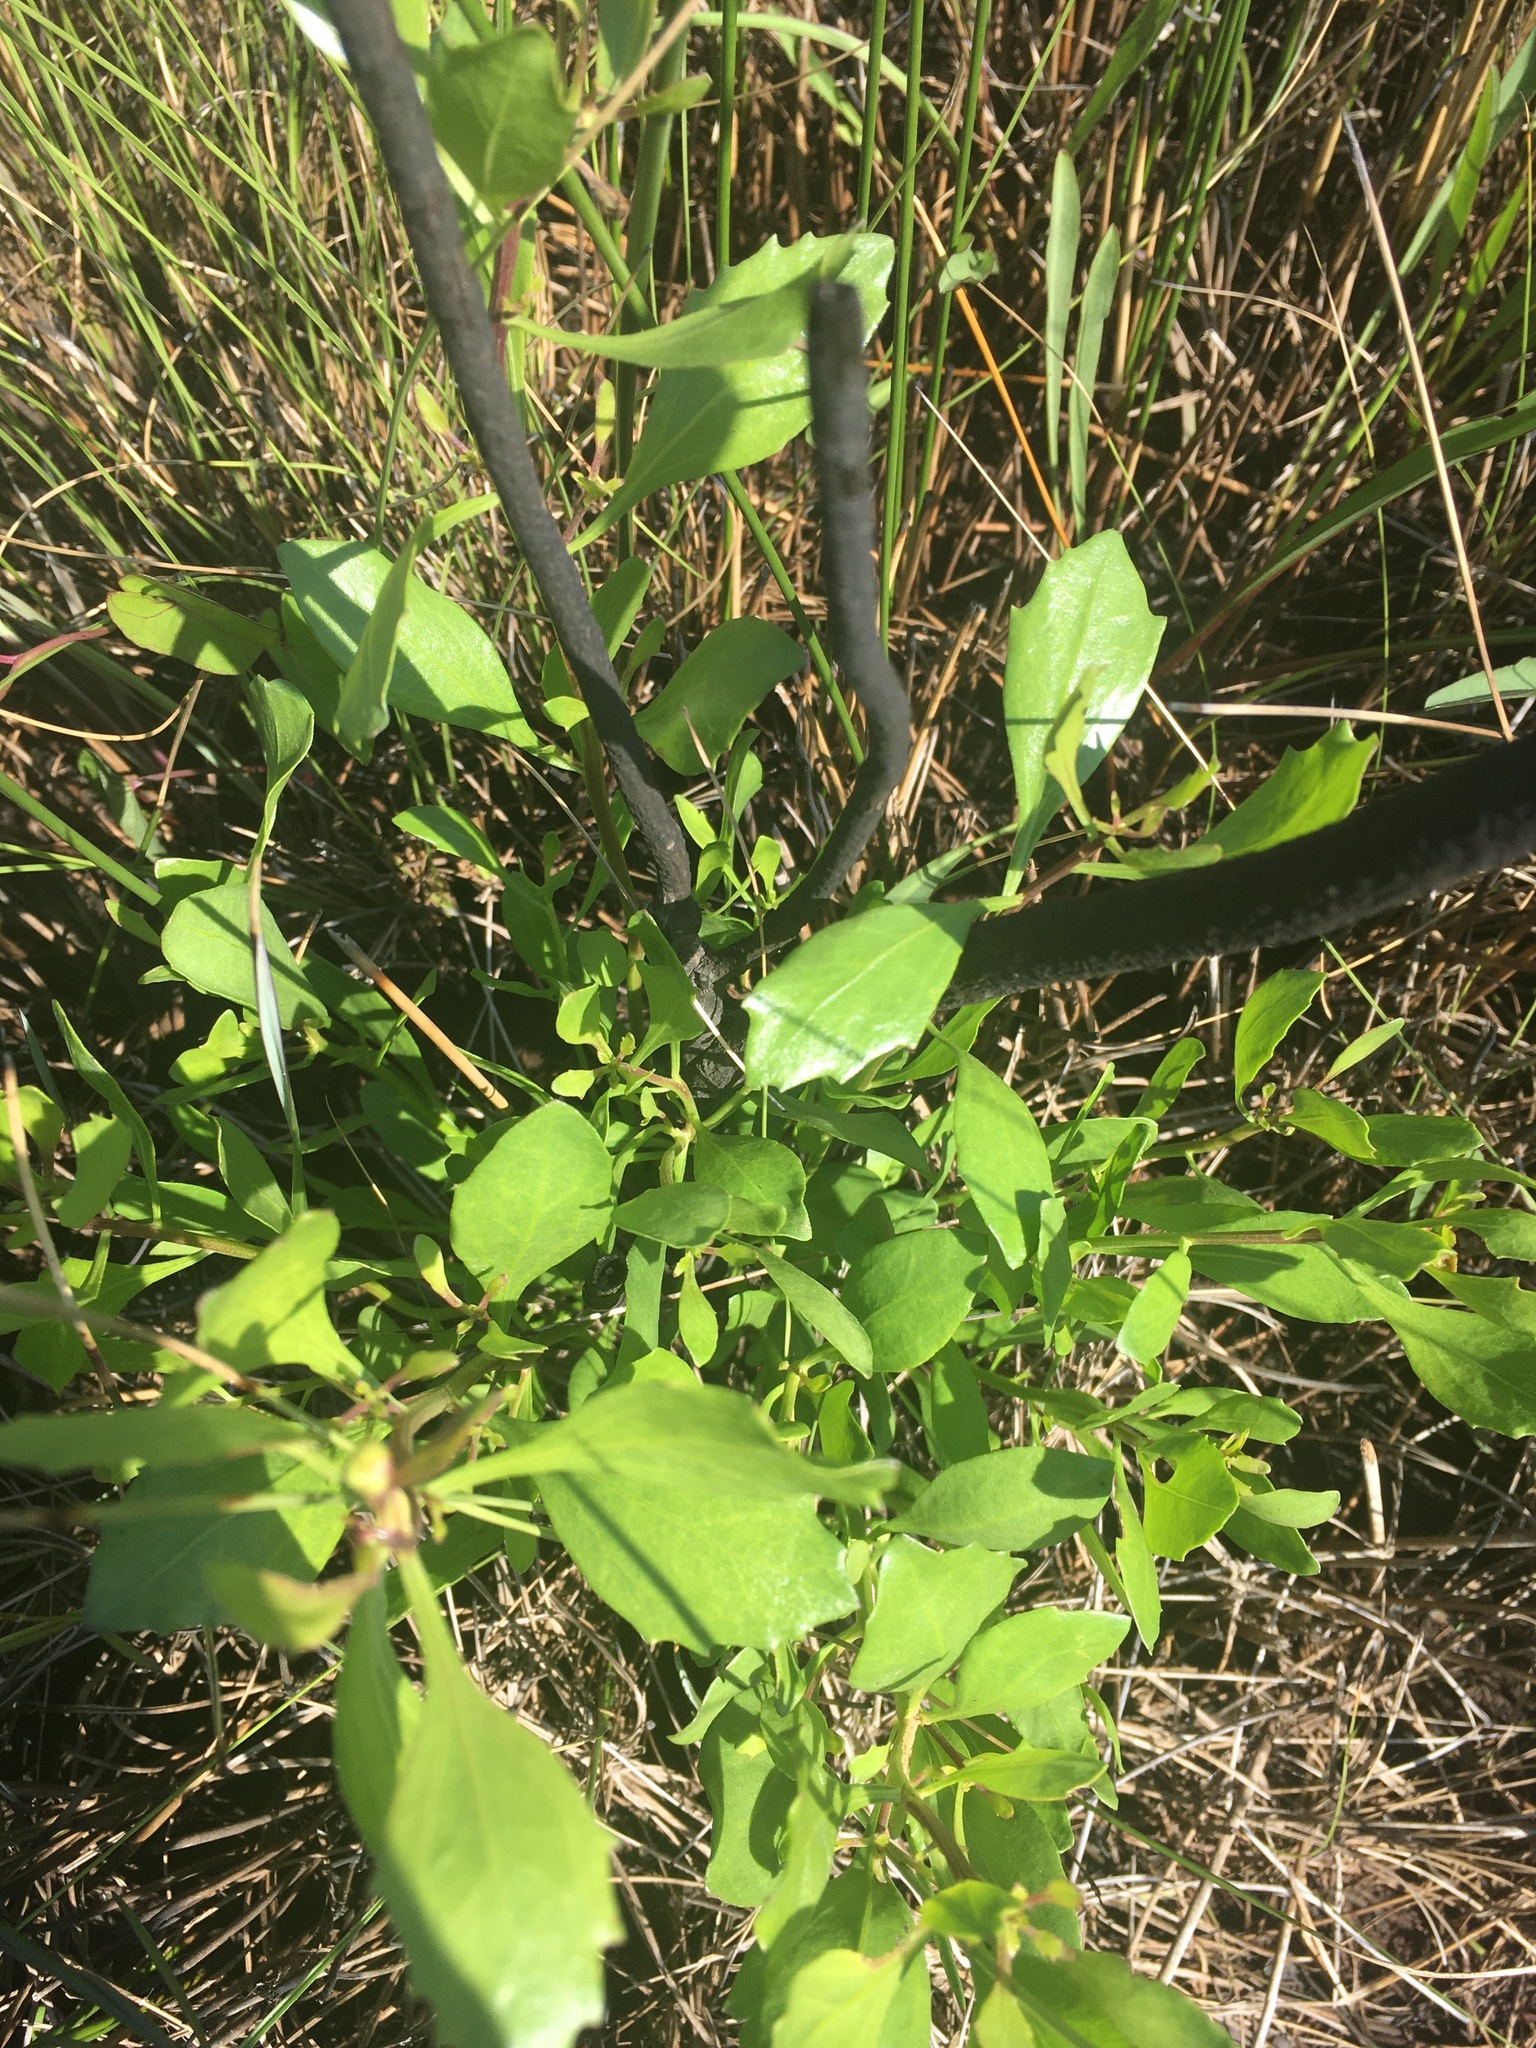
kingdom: Plantae
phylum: Tracheophyta
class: Magnoliopsida
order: Asterales
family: Asteraceae
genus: Baccharis
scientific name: Baccharis halimifolia
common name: Eastern baccharis
